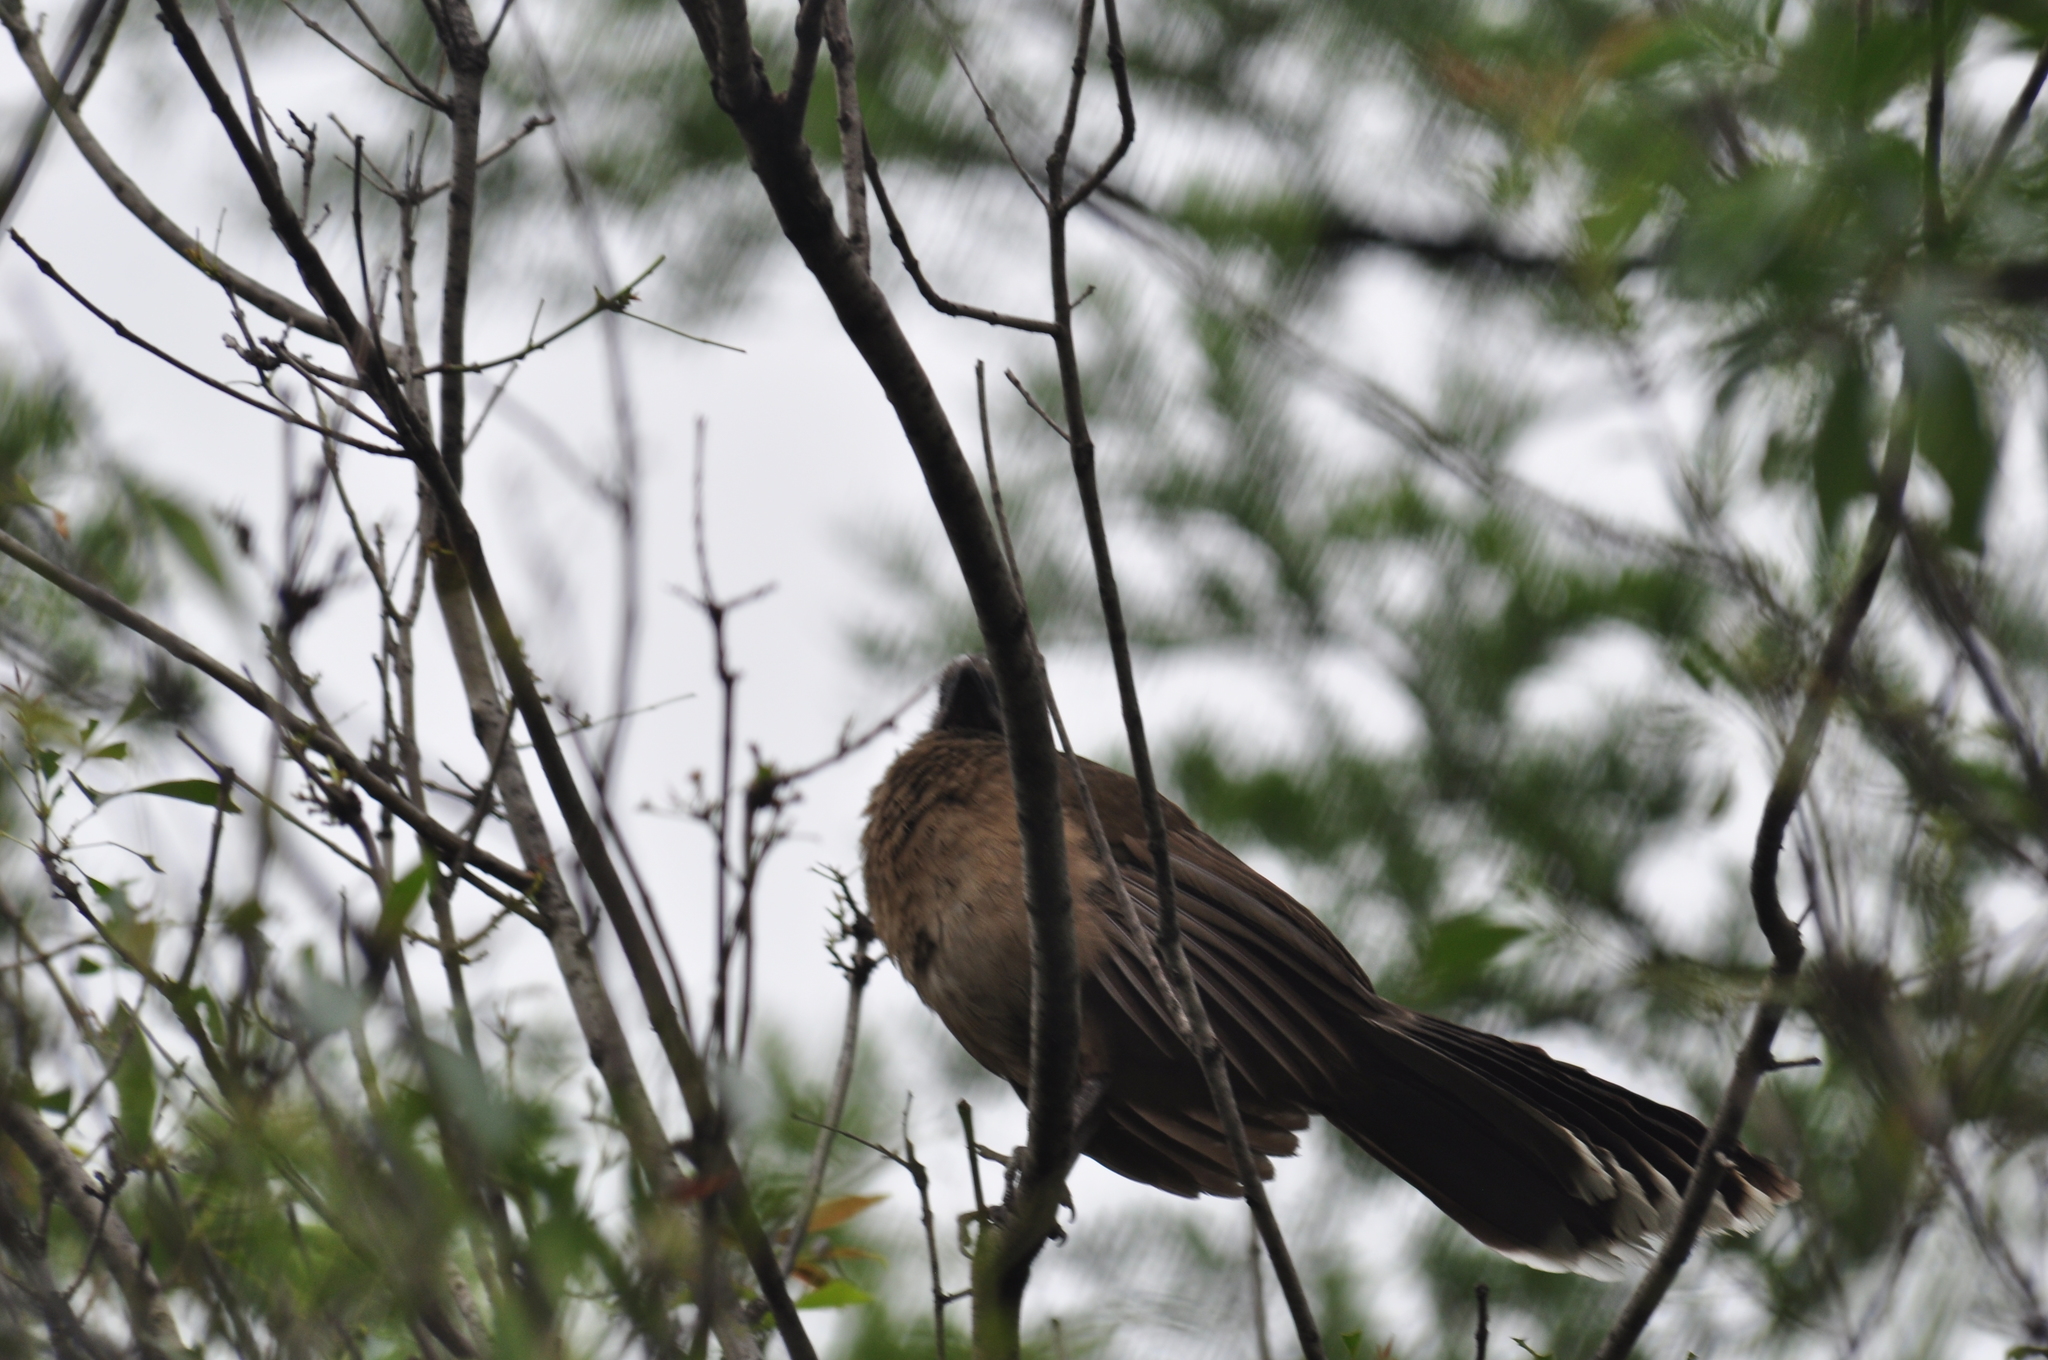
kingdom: Animalia
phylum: Chordata
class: Aves
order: Galliformes
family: Cracidae
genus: Ortalis
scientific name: Ortalis vetula
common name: Plain chachalaca
